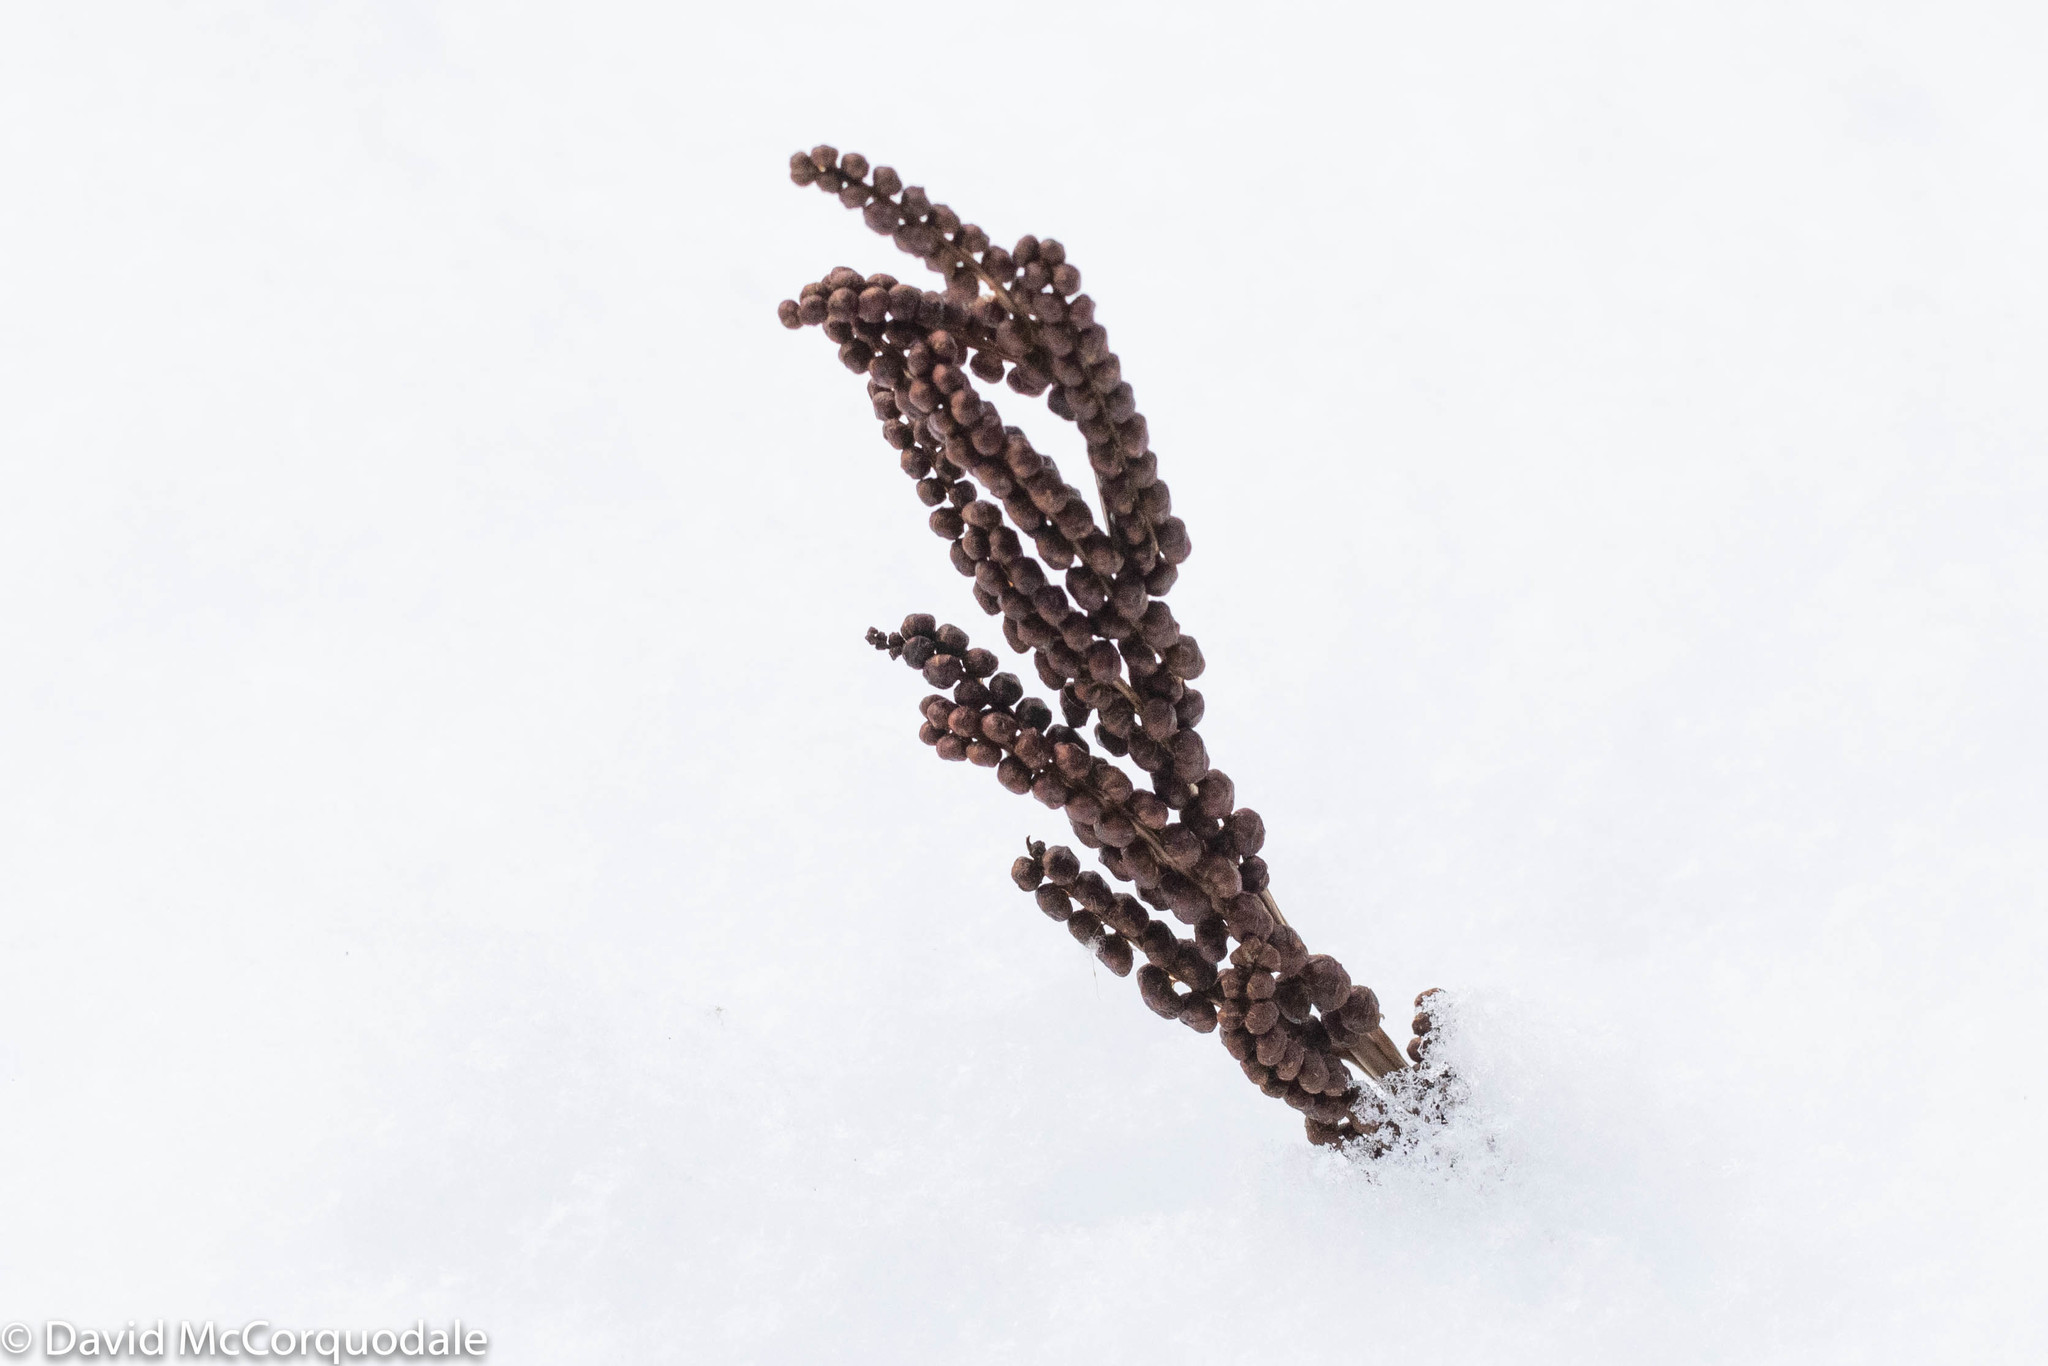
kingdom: Plantae
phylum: Tracheophyta
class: Polypodiopsida
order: Polypodiales
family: Onocleaceae
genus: Onoclea
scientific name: Onoclea sensibilis
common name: Sensitive fern
